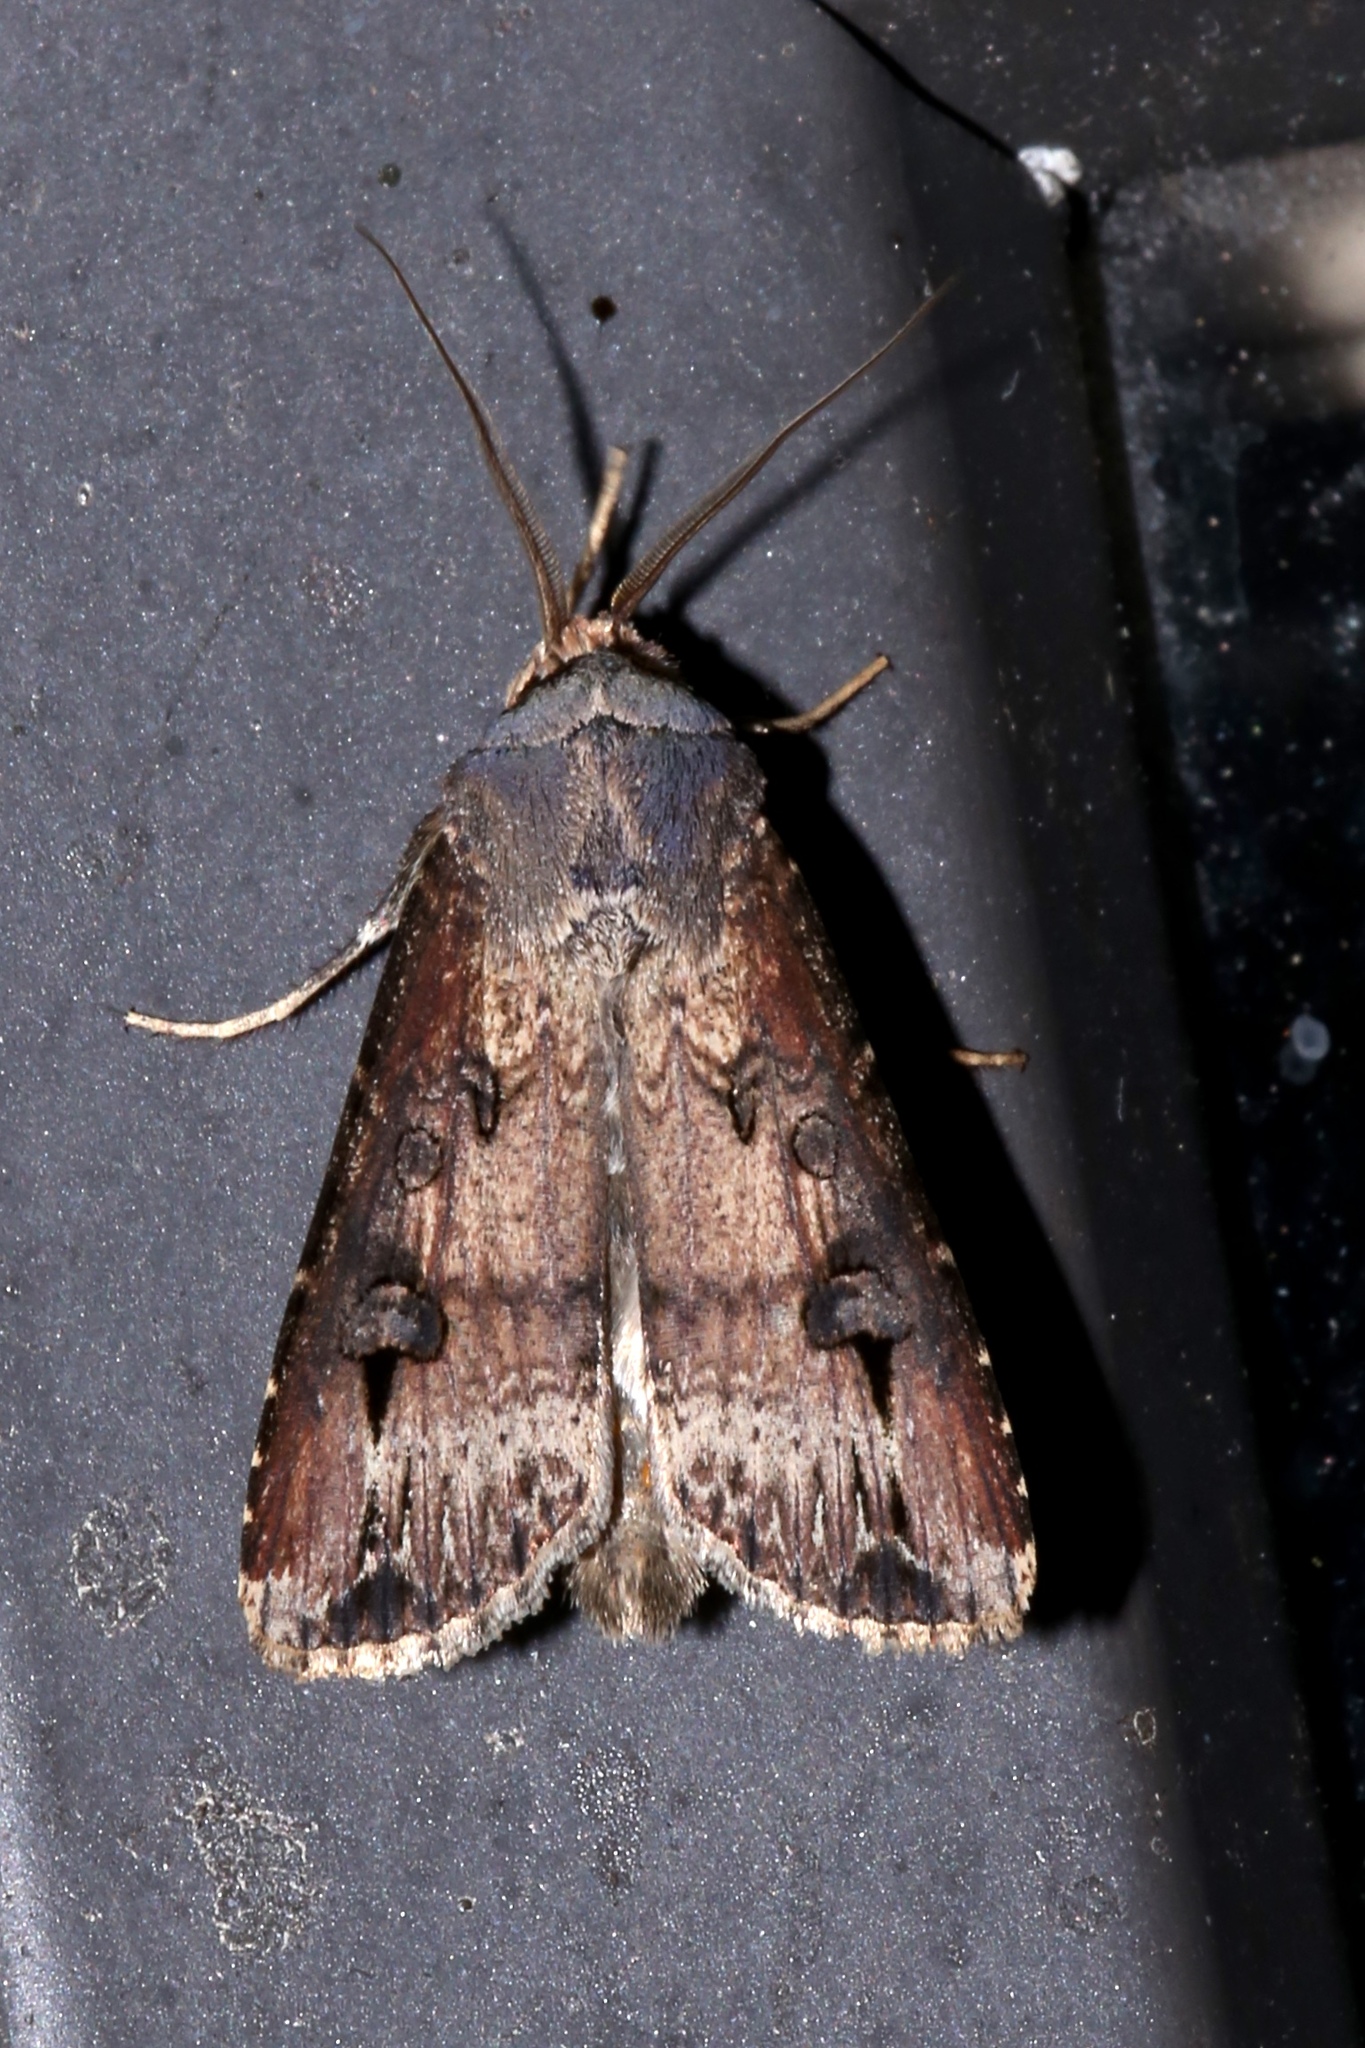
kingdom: Animalia
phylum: Arthropoda
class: Insecta
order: Lepidoptera
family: Noctuidae
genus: Agrotis
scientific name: Agrotis ipsilon
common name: Dark sword-grass
